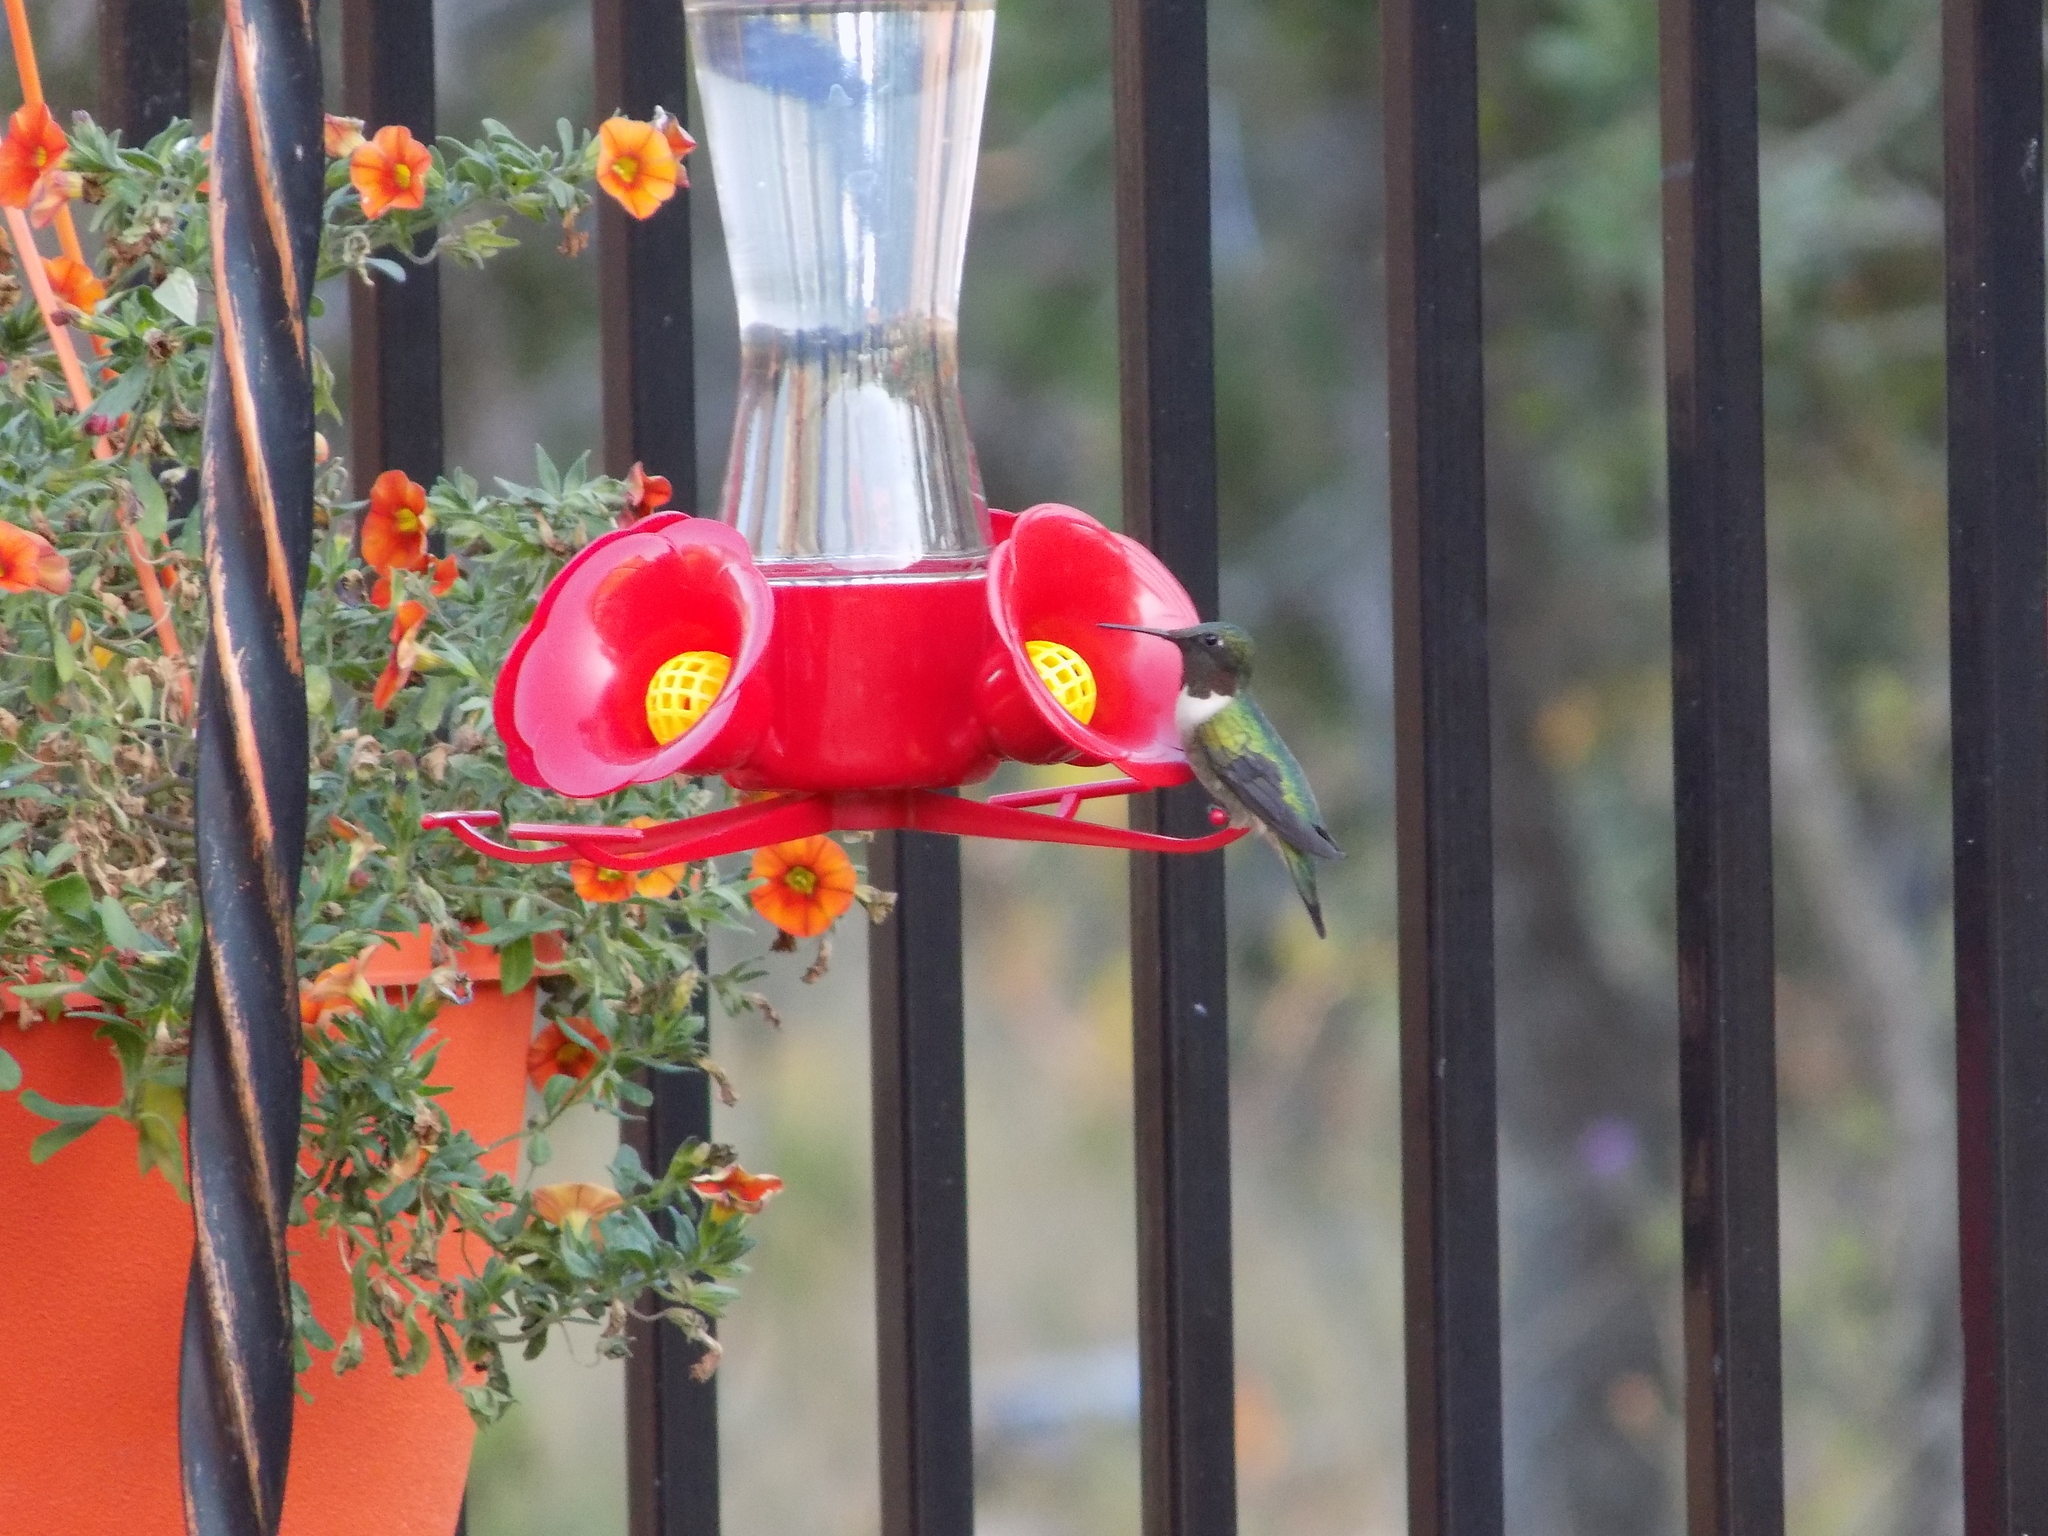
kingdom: Animalia
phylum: Chordata
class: Aves
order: Apodiformes
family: Trochilidae
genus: Archilochus
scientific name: Archilochus colubris
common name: Ruby-throated hummingbird
